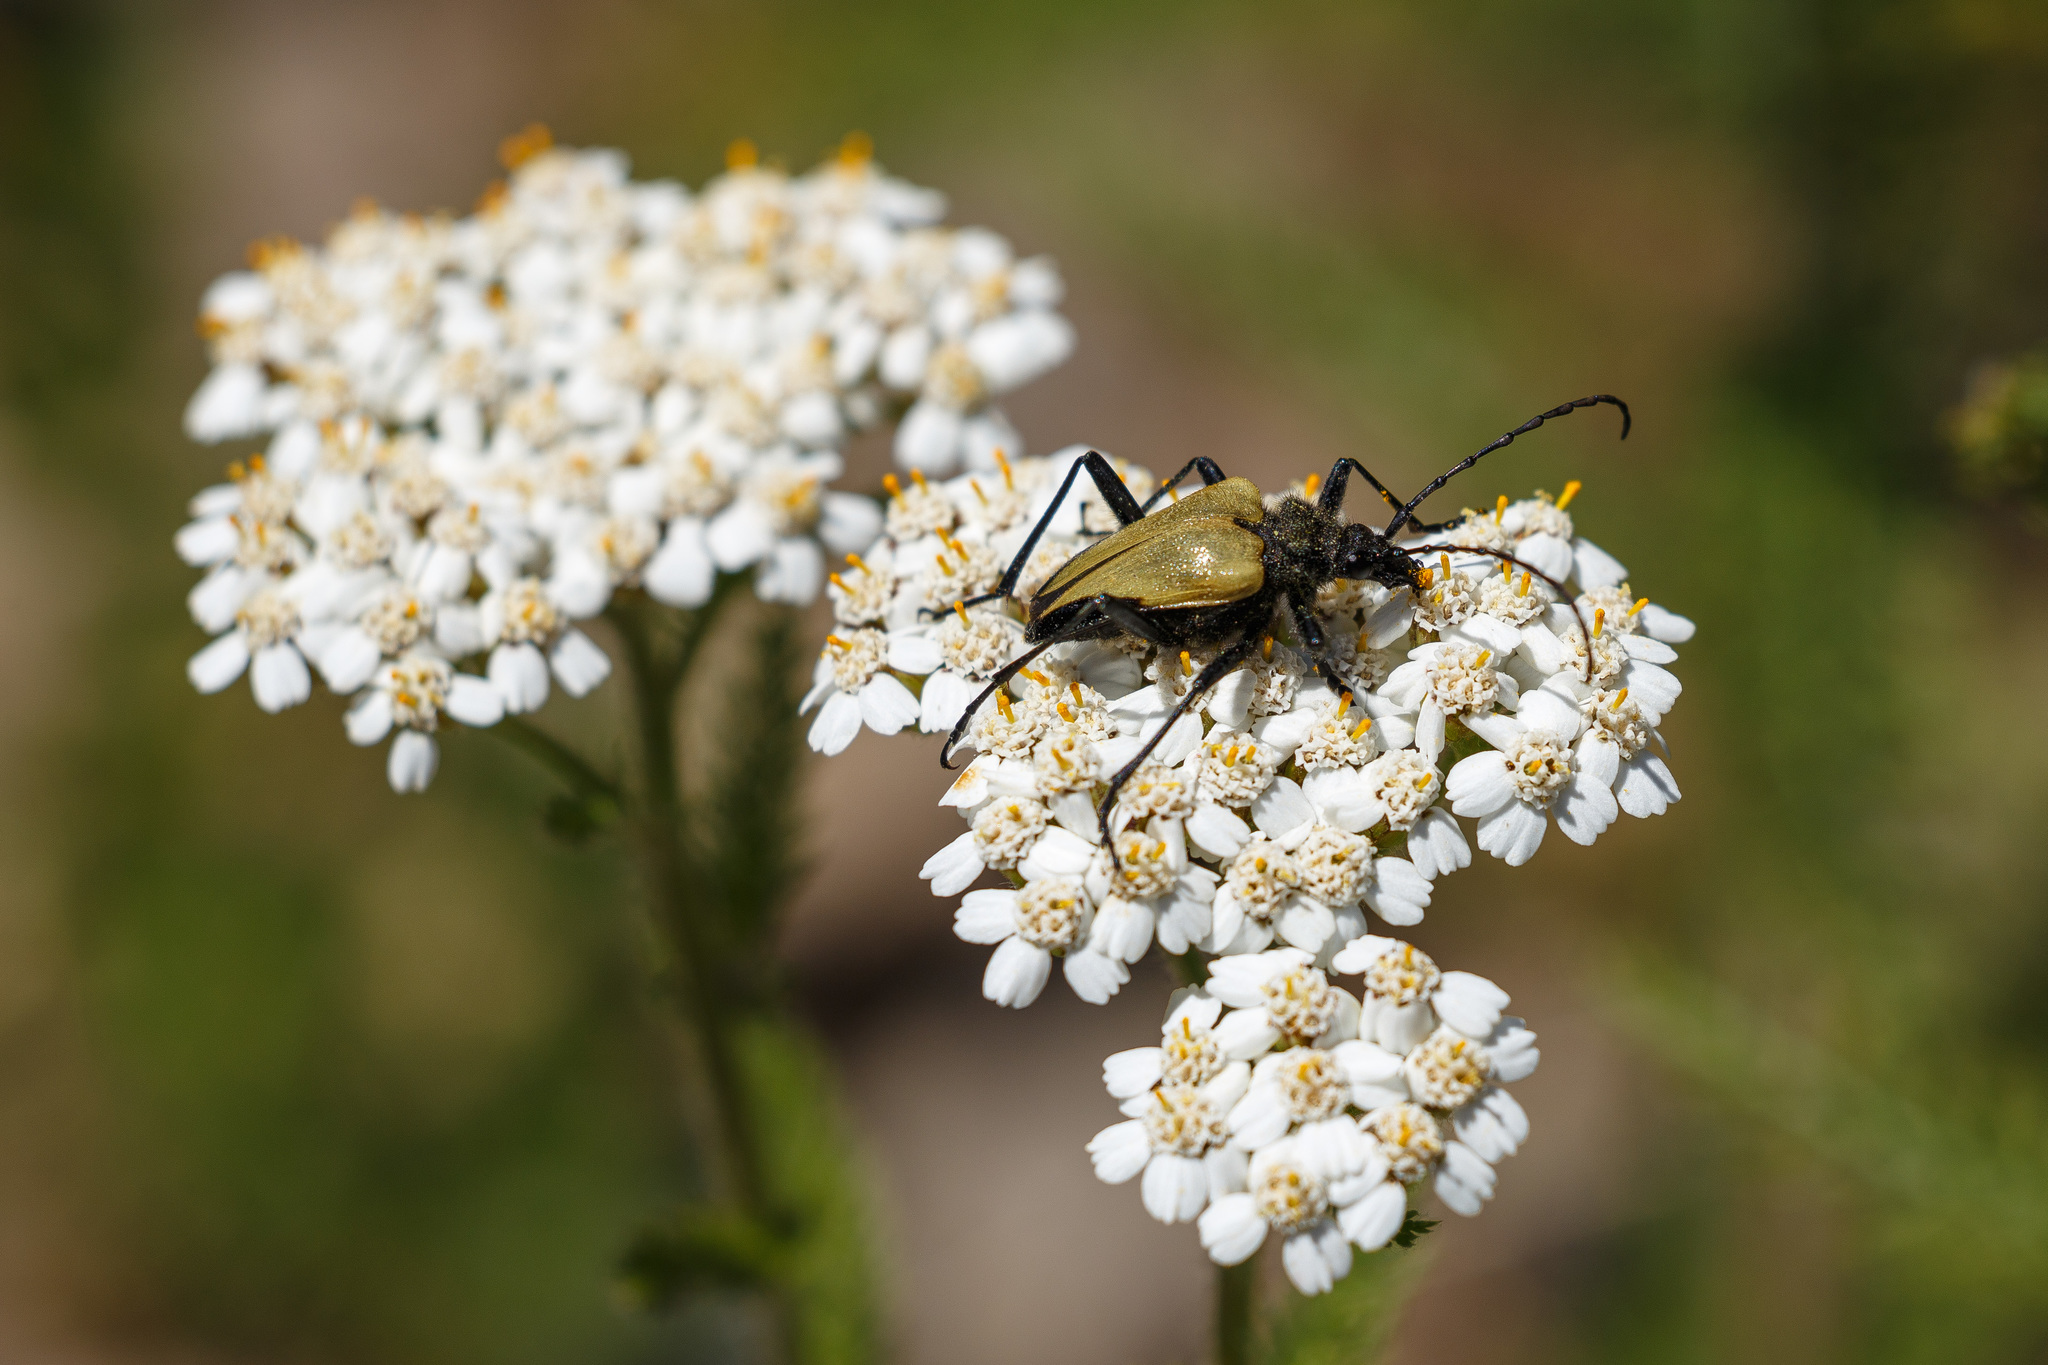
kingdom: Animalia
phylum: Arthropoda
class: Insecta
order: Coleoptera
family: Cerambycidae
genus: Pachyta
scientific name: Pachyta armata
